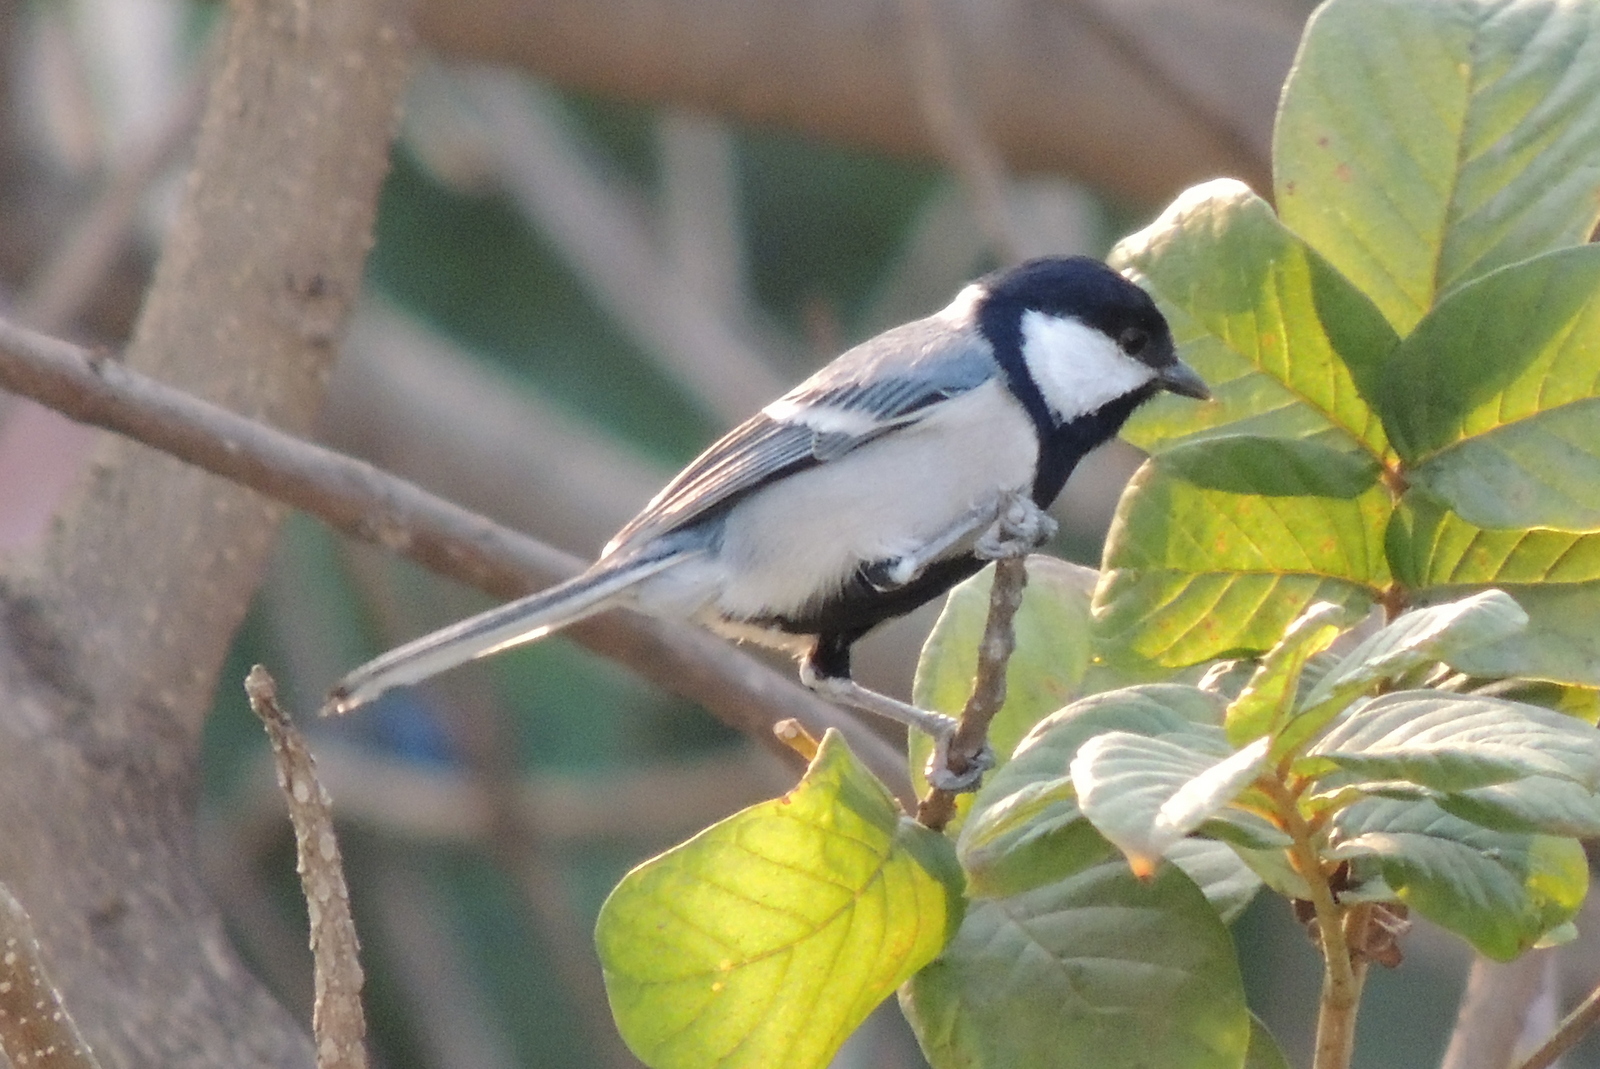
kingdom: Animalia
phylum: Chordata
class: Aves
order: Passeriformes
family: Paridae
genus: Parus
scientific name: Parus cinereus
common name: Cinereous tit
